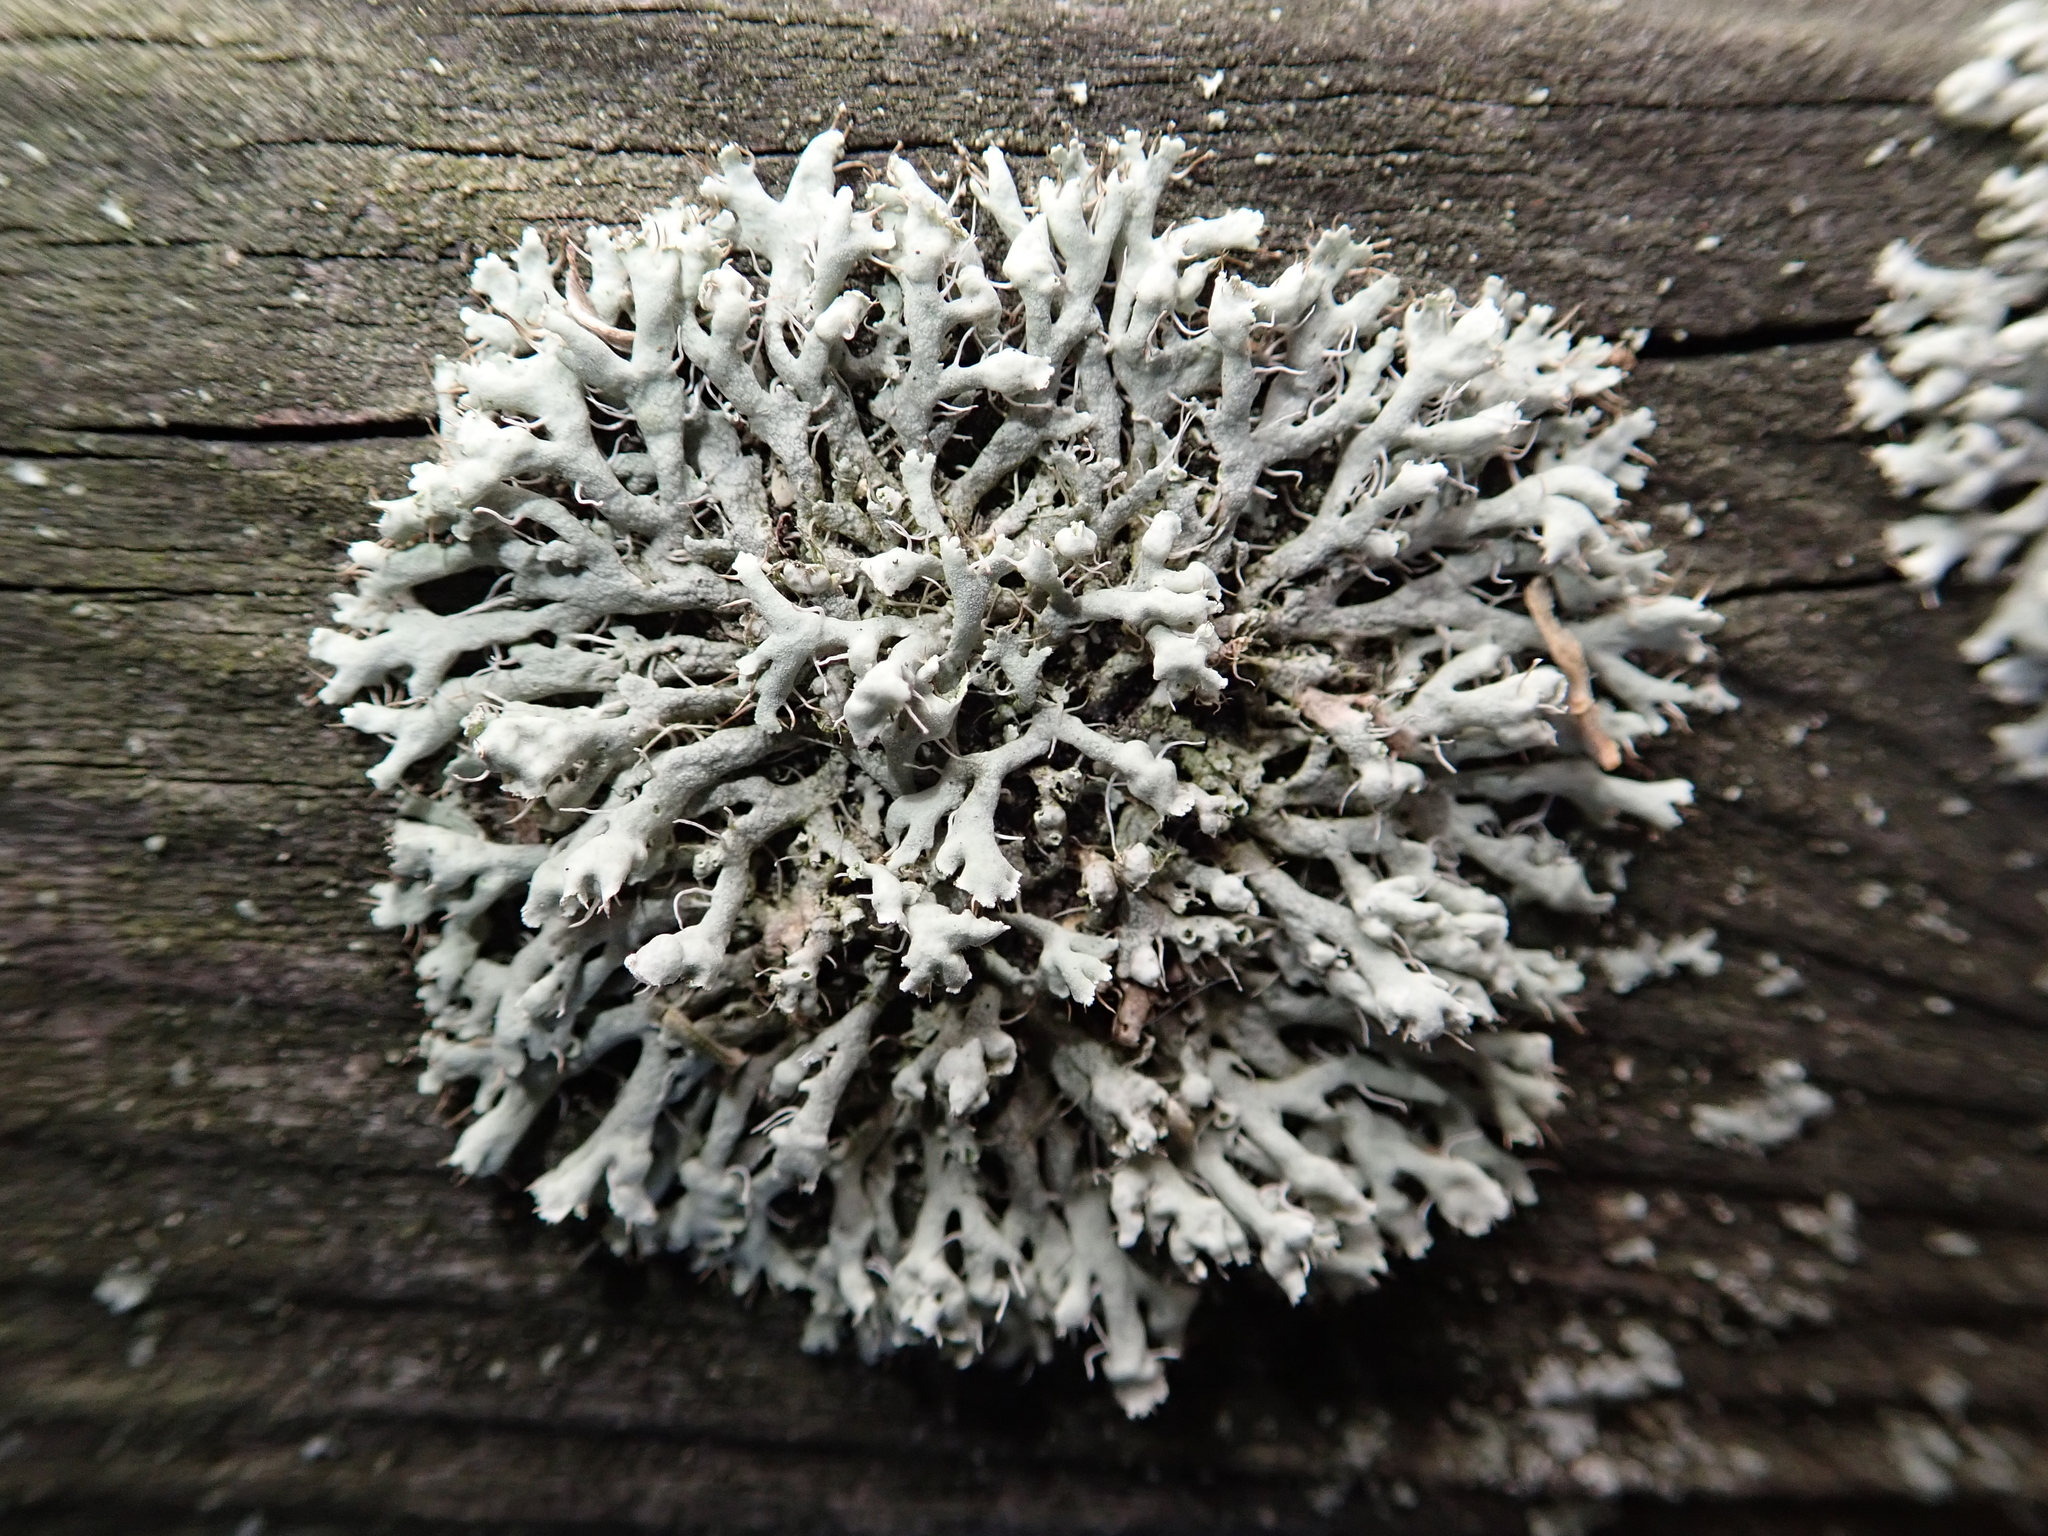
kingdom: Fungi
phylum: Ascomycota
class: Lecanoromycetes
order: Caliciales
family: Physciaceae
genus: Physcia
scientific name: Physcia adscendens
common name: Hooded rosette lichen
